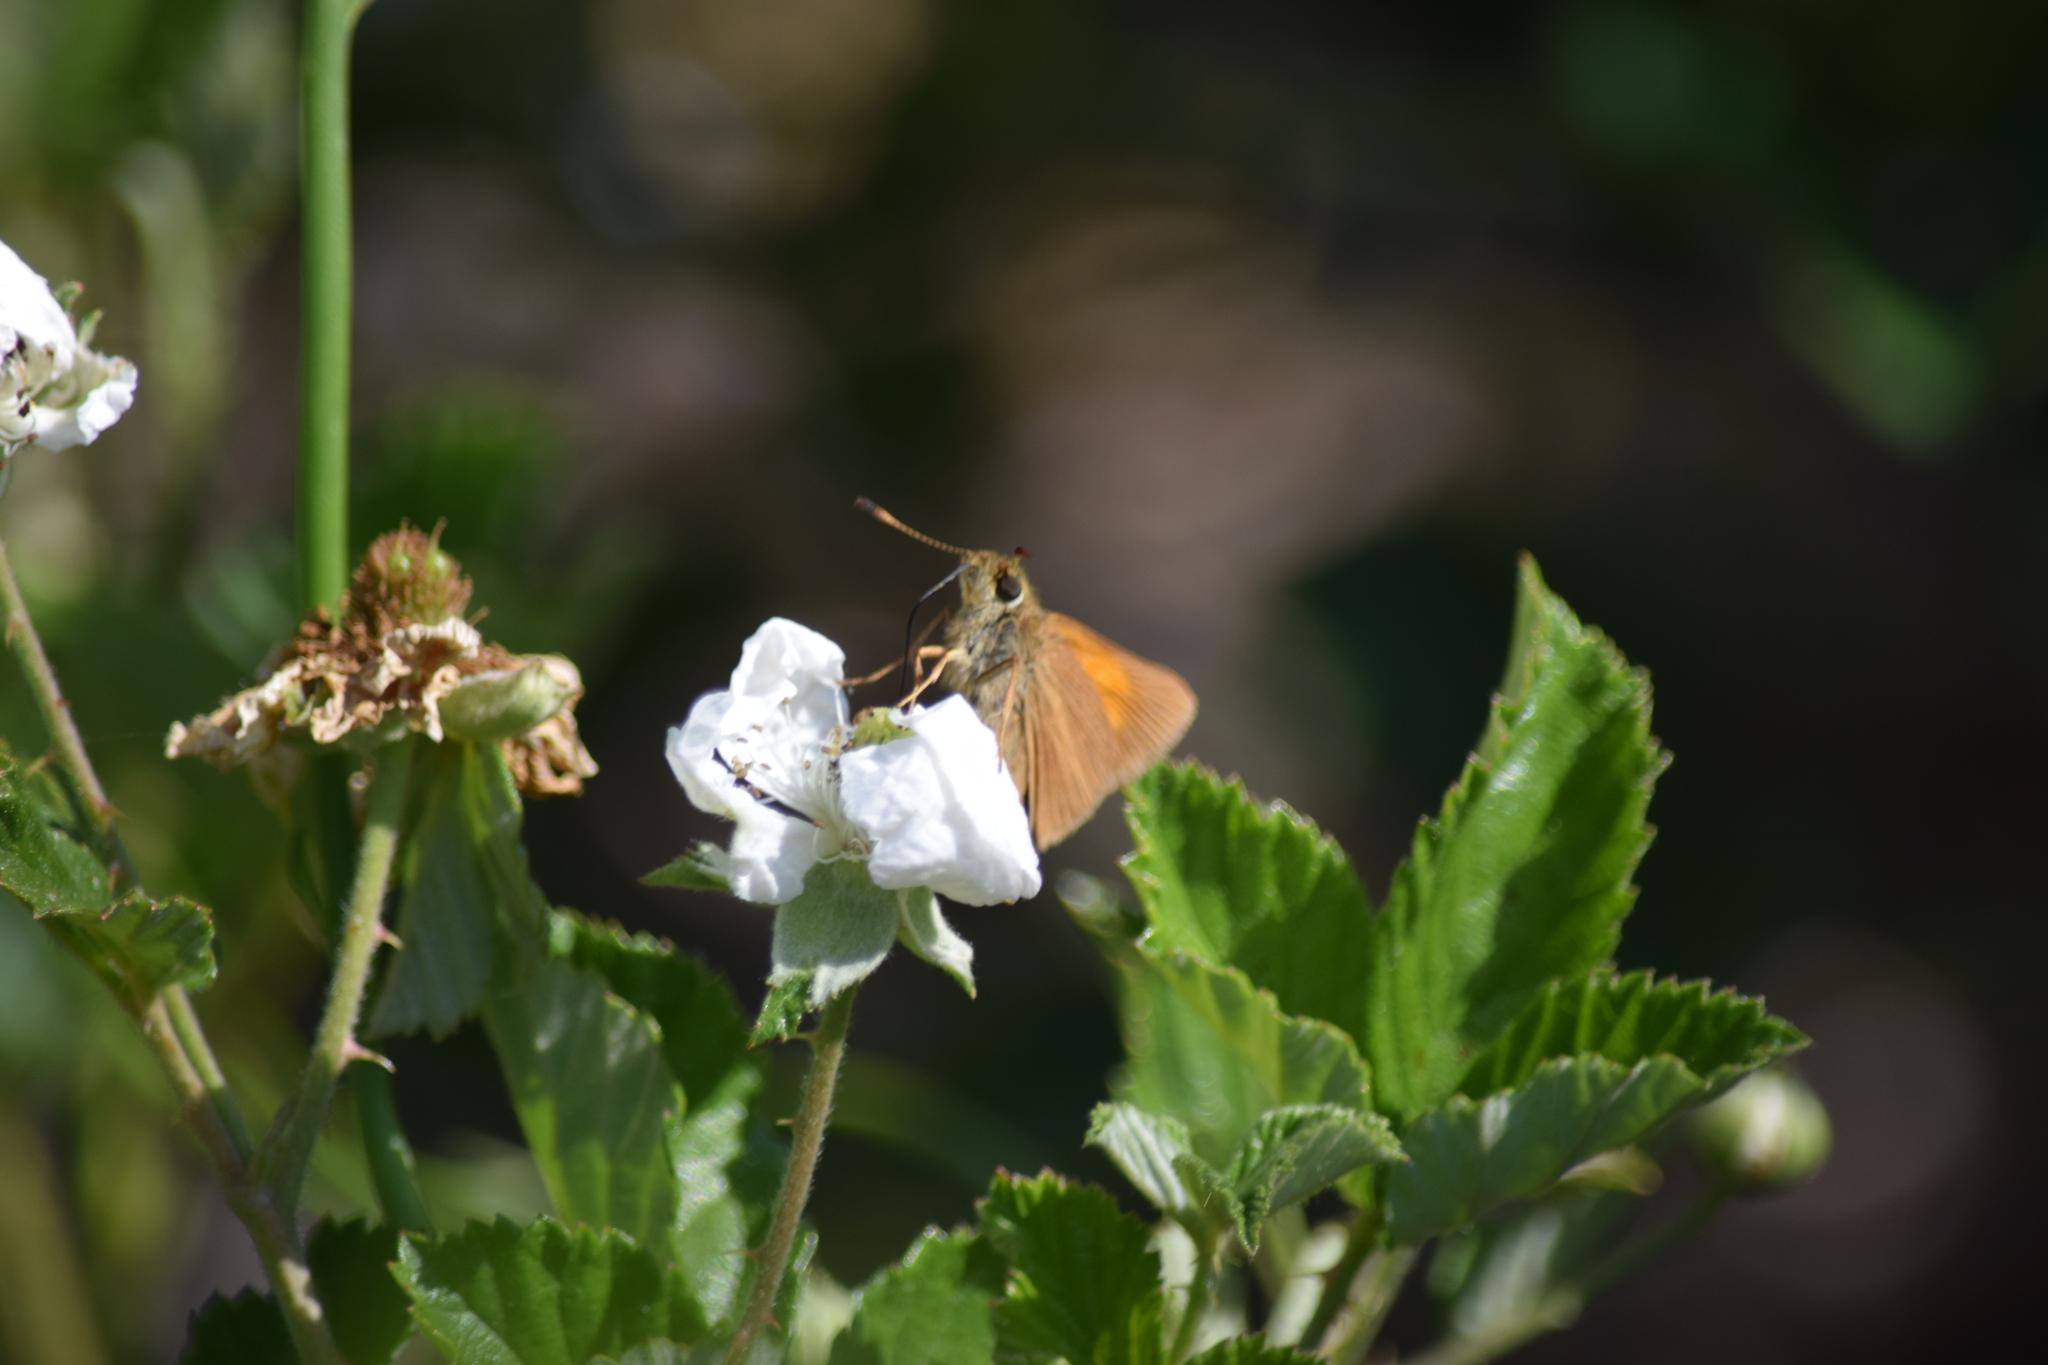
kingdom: Animalia
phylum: Arthropoda
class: Insecta
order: Lepidoptera
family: Hesperiidae
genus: Poanes
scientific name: Poanes aaroni
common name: Aaron's skipper
